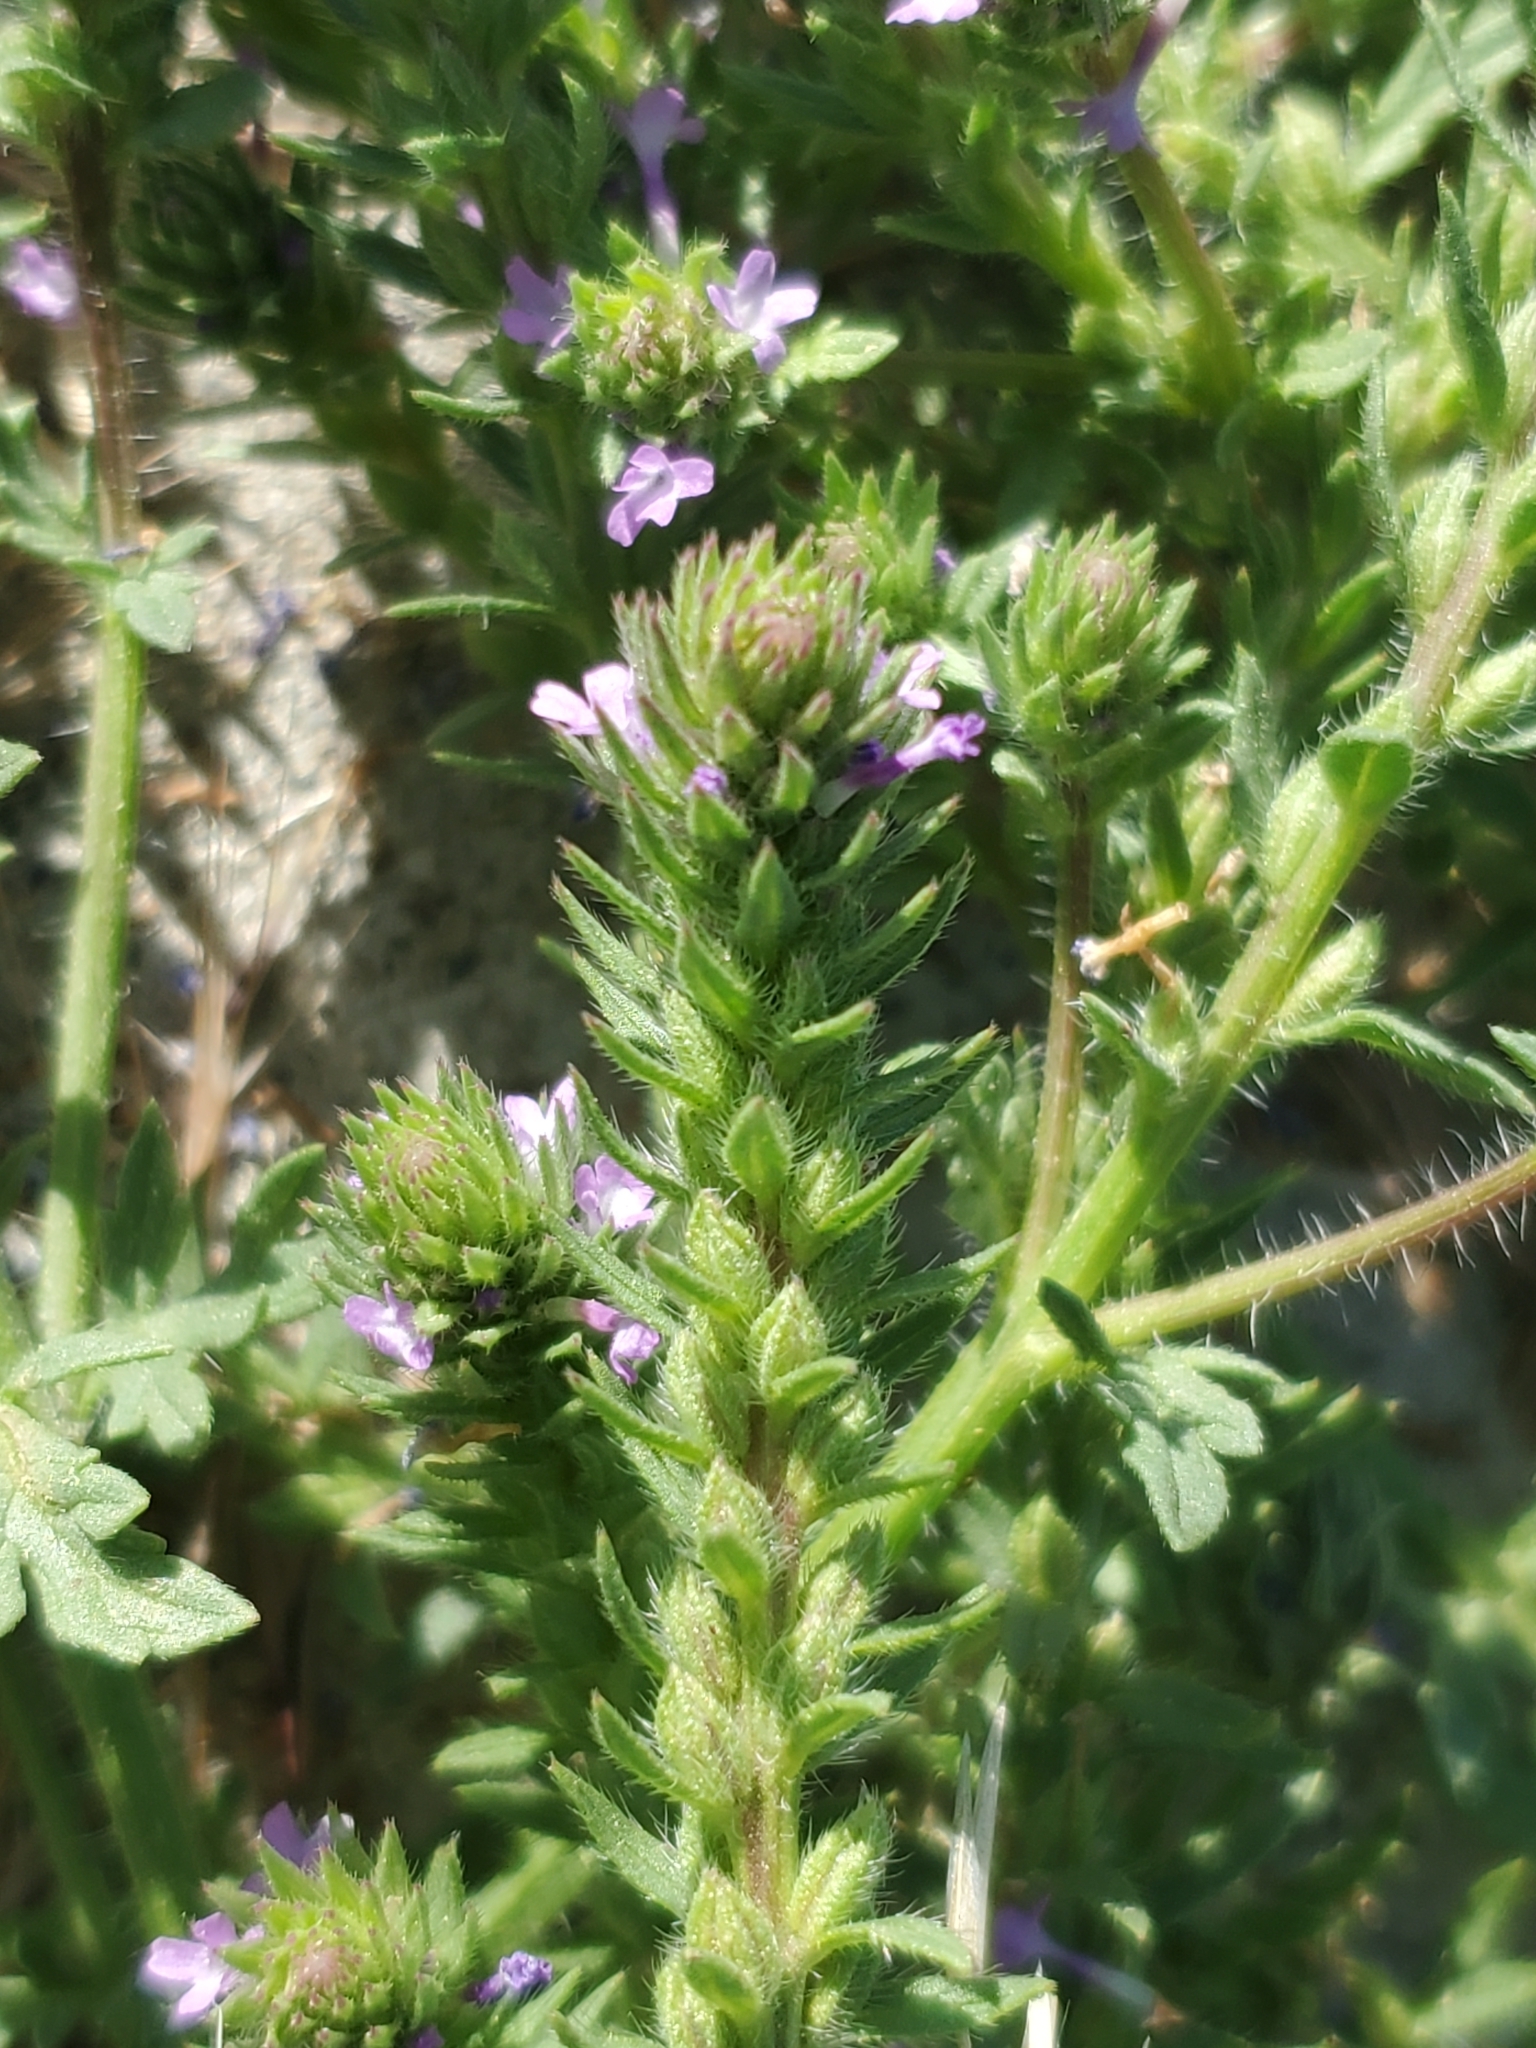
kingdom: Plantae
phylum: Tracheophyta
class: Magnoliopsida
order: Lamiales
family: Verbenaceae
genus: Verbena
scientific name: Verbena bracteata
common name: Bracted vervain
